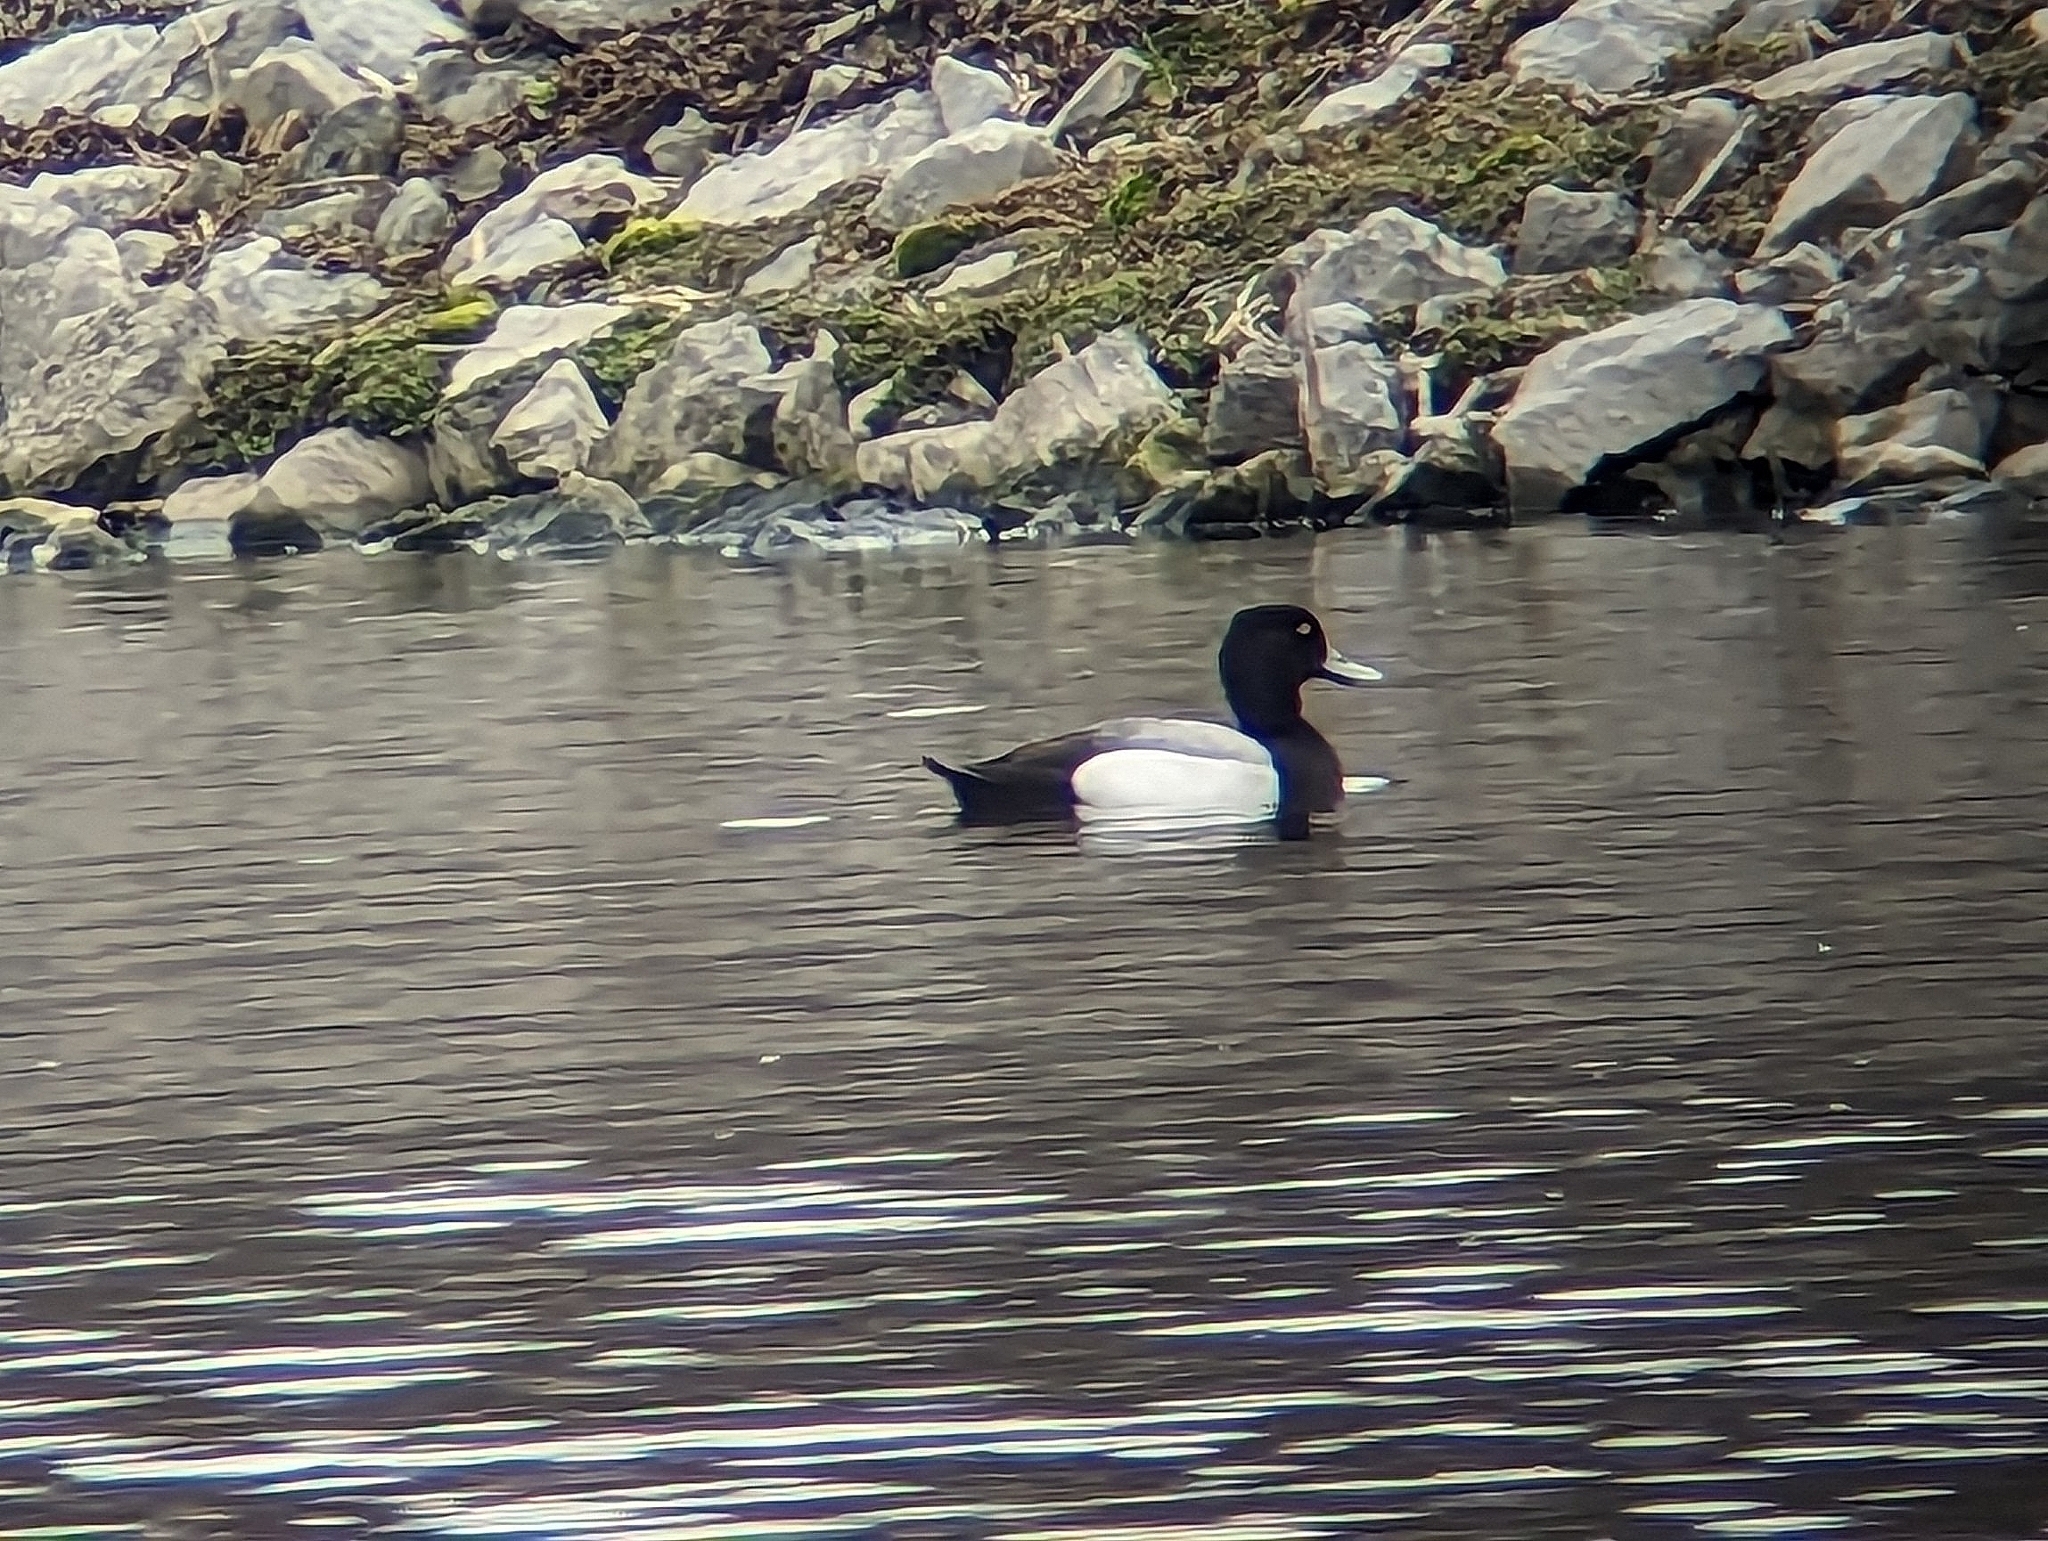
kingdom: Animalia
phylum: Chordata
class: Aves
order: Anseriformes
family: Anatidae
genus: Aythya
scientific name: Aythya affinis
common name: Lesser scaup
